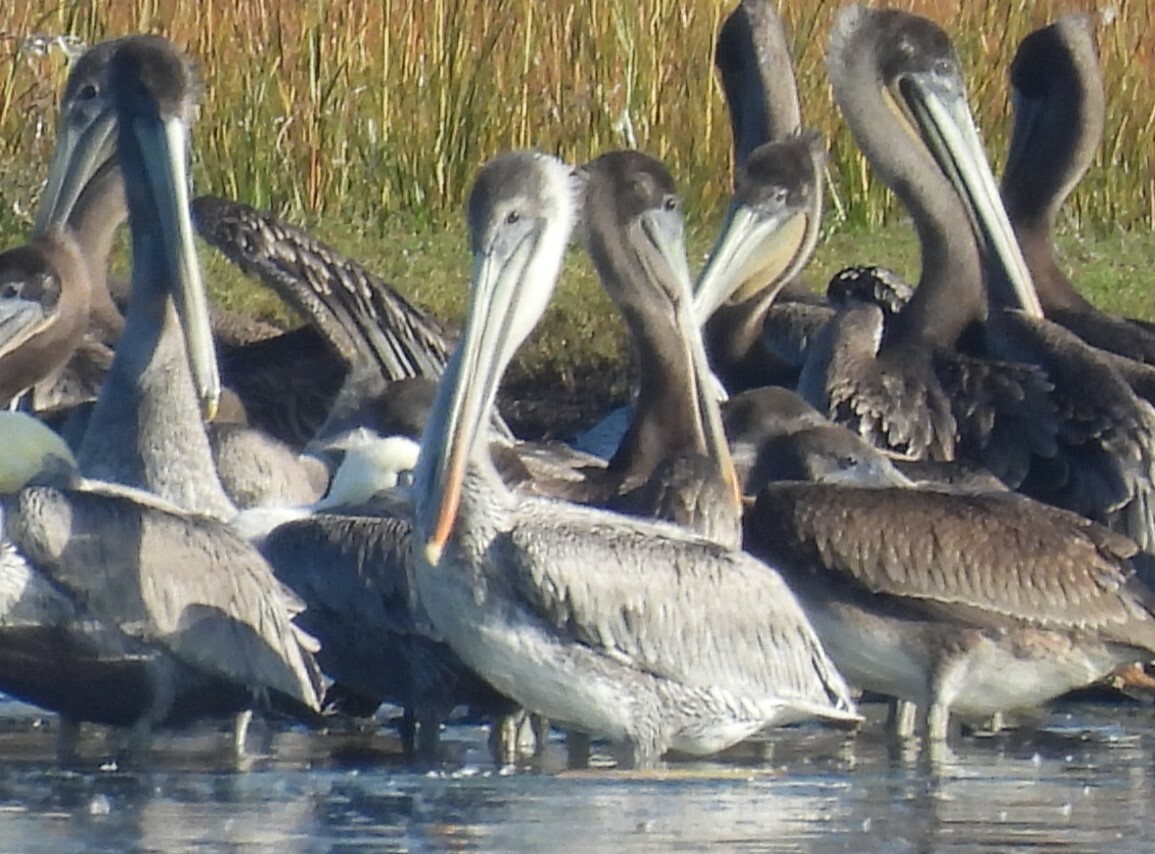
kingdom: Animalia
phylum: Chordata
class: Aves
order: Pelecaniformes
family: Pelecanidae
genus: Pelecanus
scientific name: Pelecanus occidentalis
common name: Brown pelican
